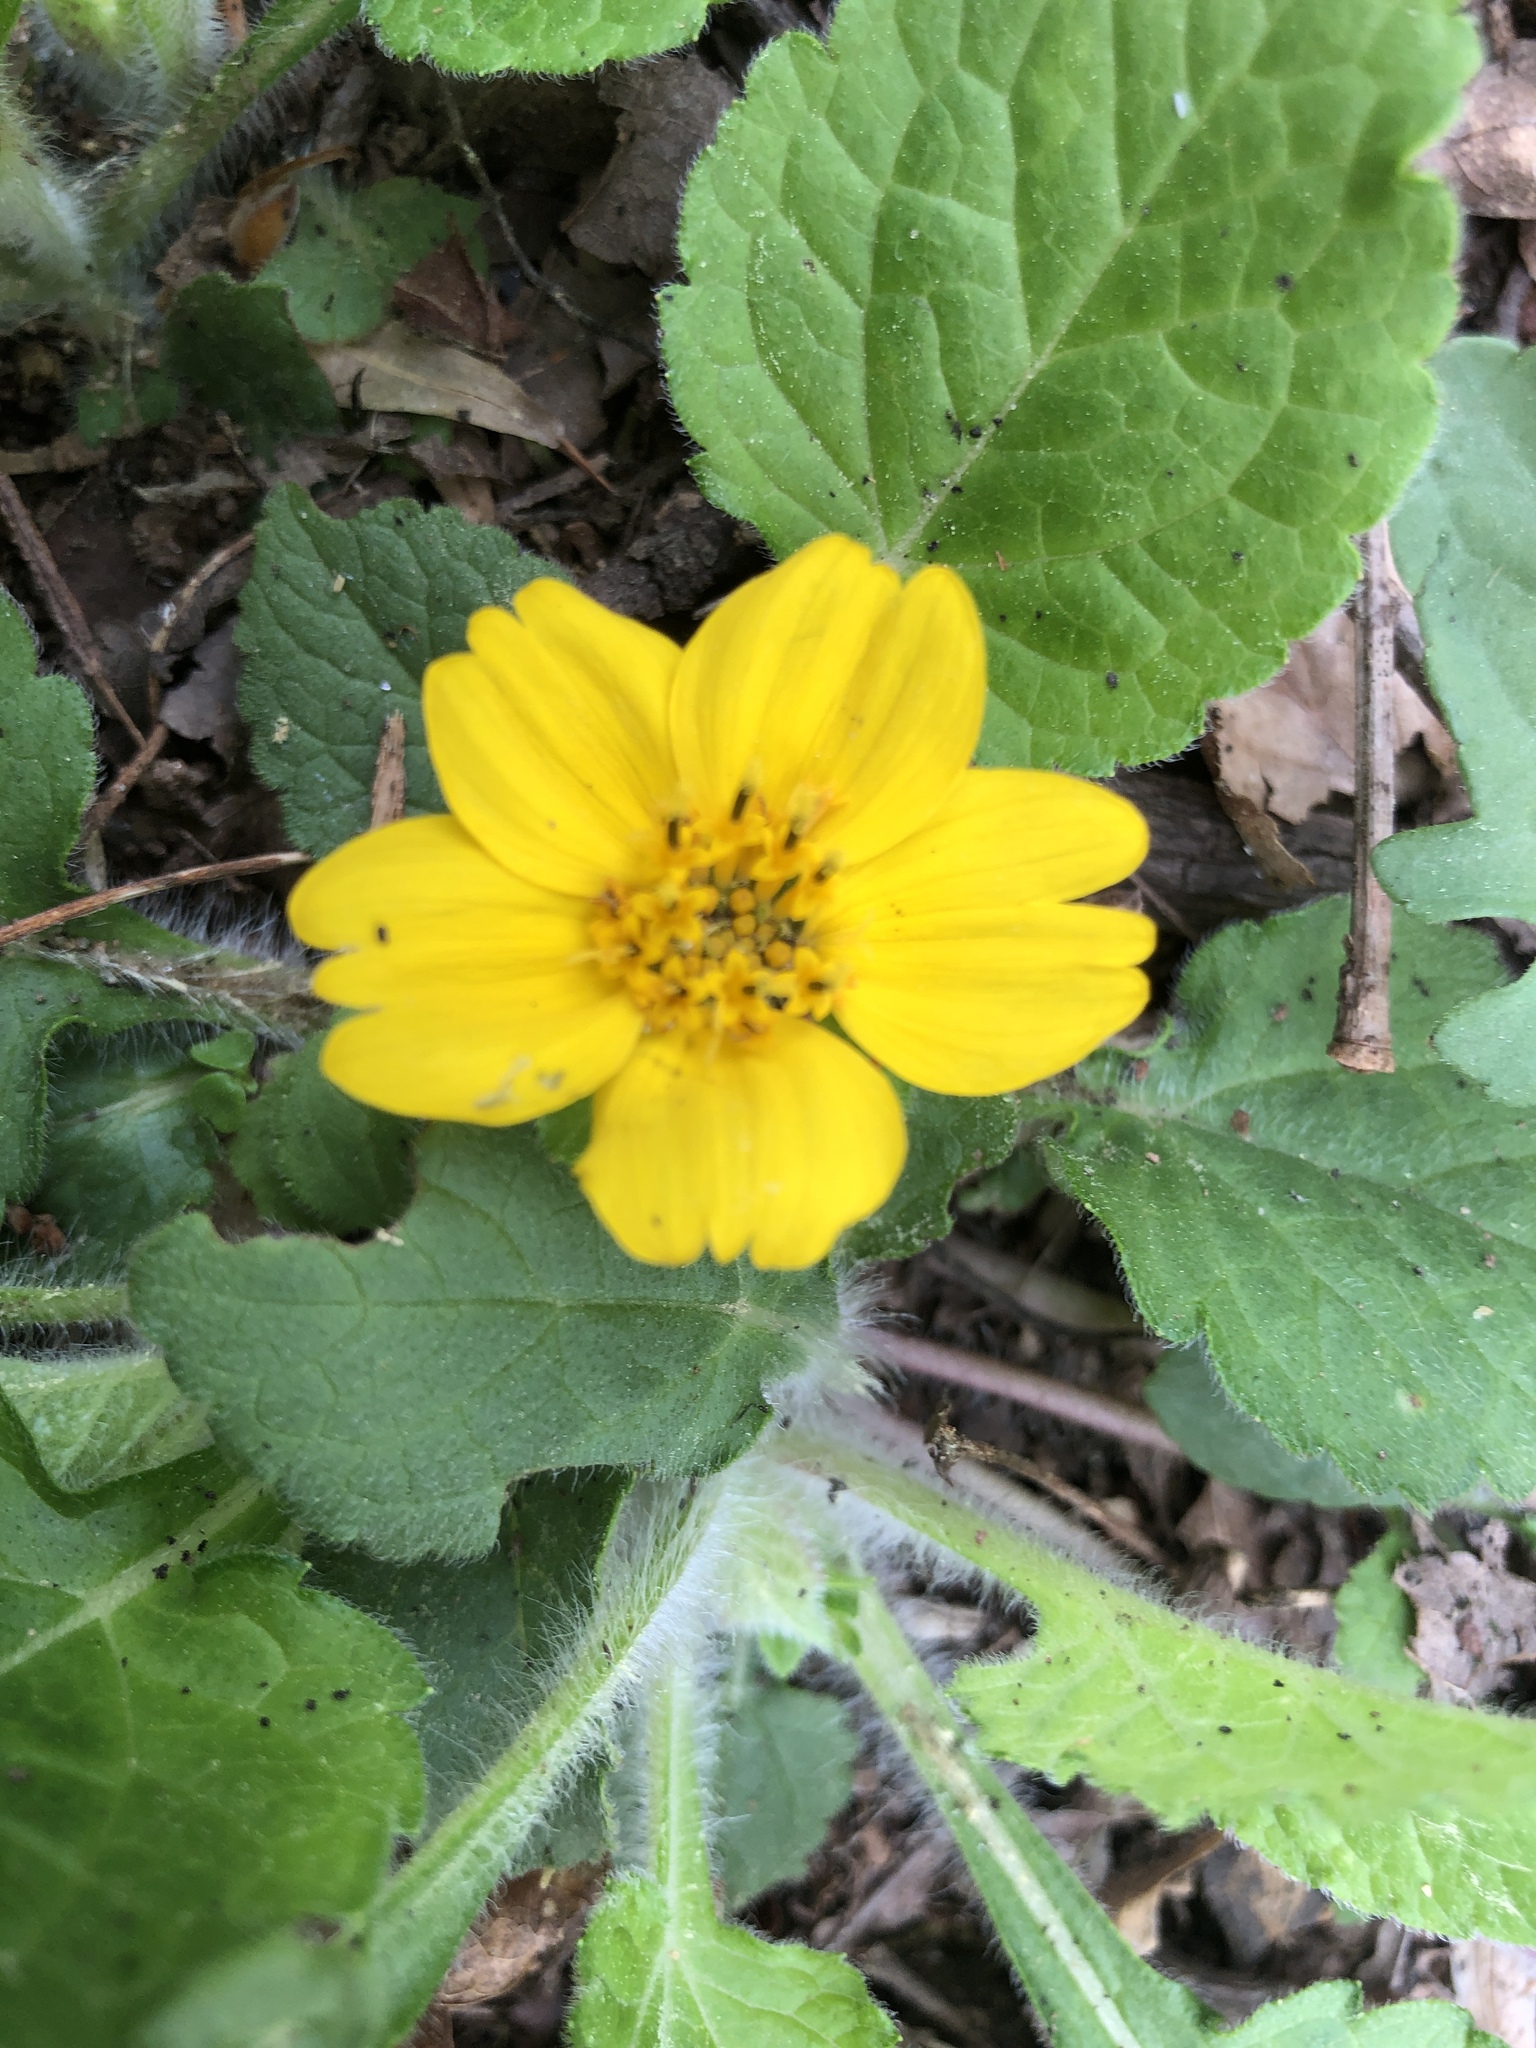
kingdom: Plantae
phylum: Tracheophyta
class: Magnoliopsida
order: Asterales
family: Asteraceae
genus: Chrysogonum
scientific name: Chrysogonum virginianum
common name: Golden-knee
